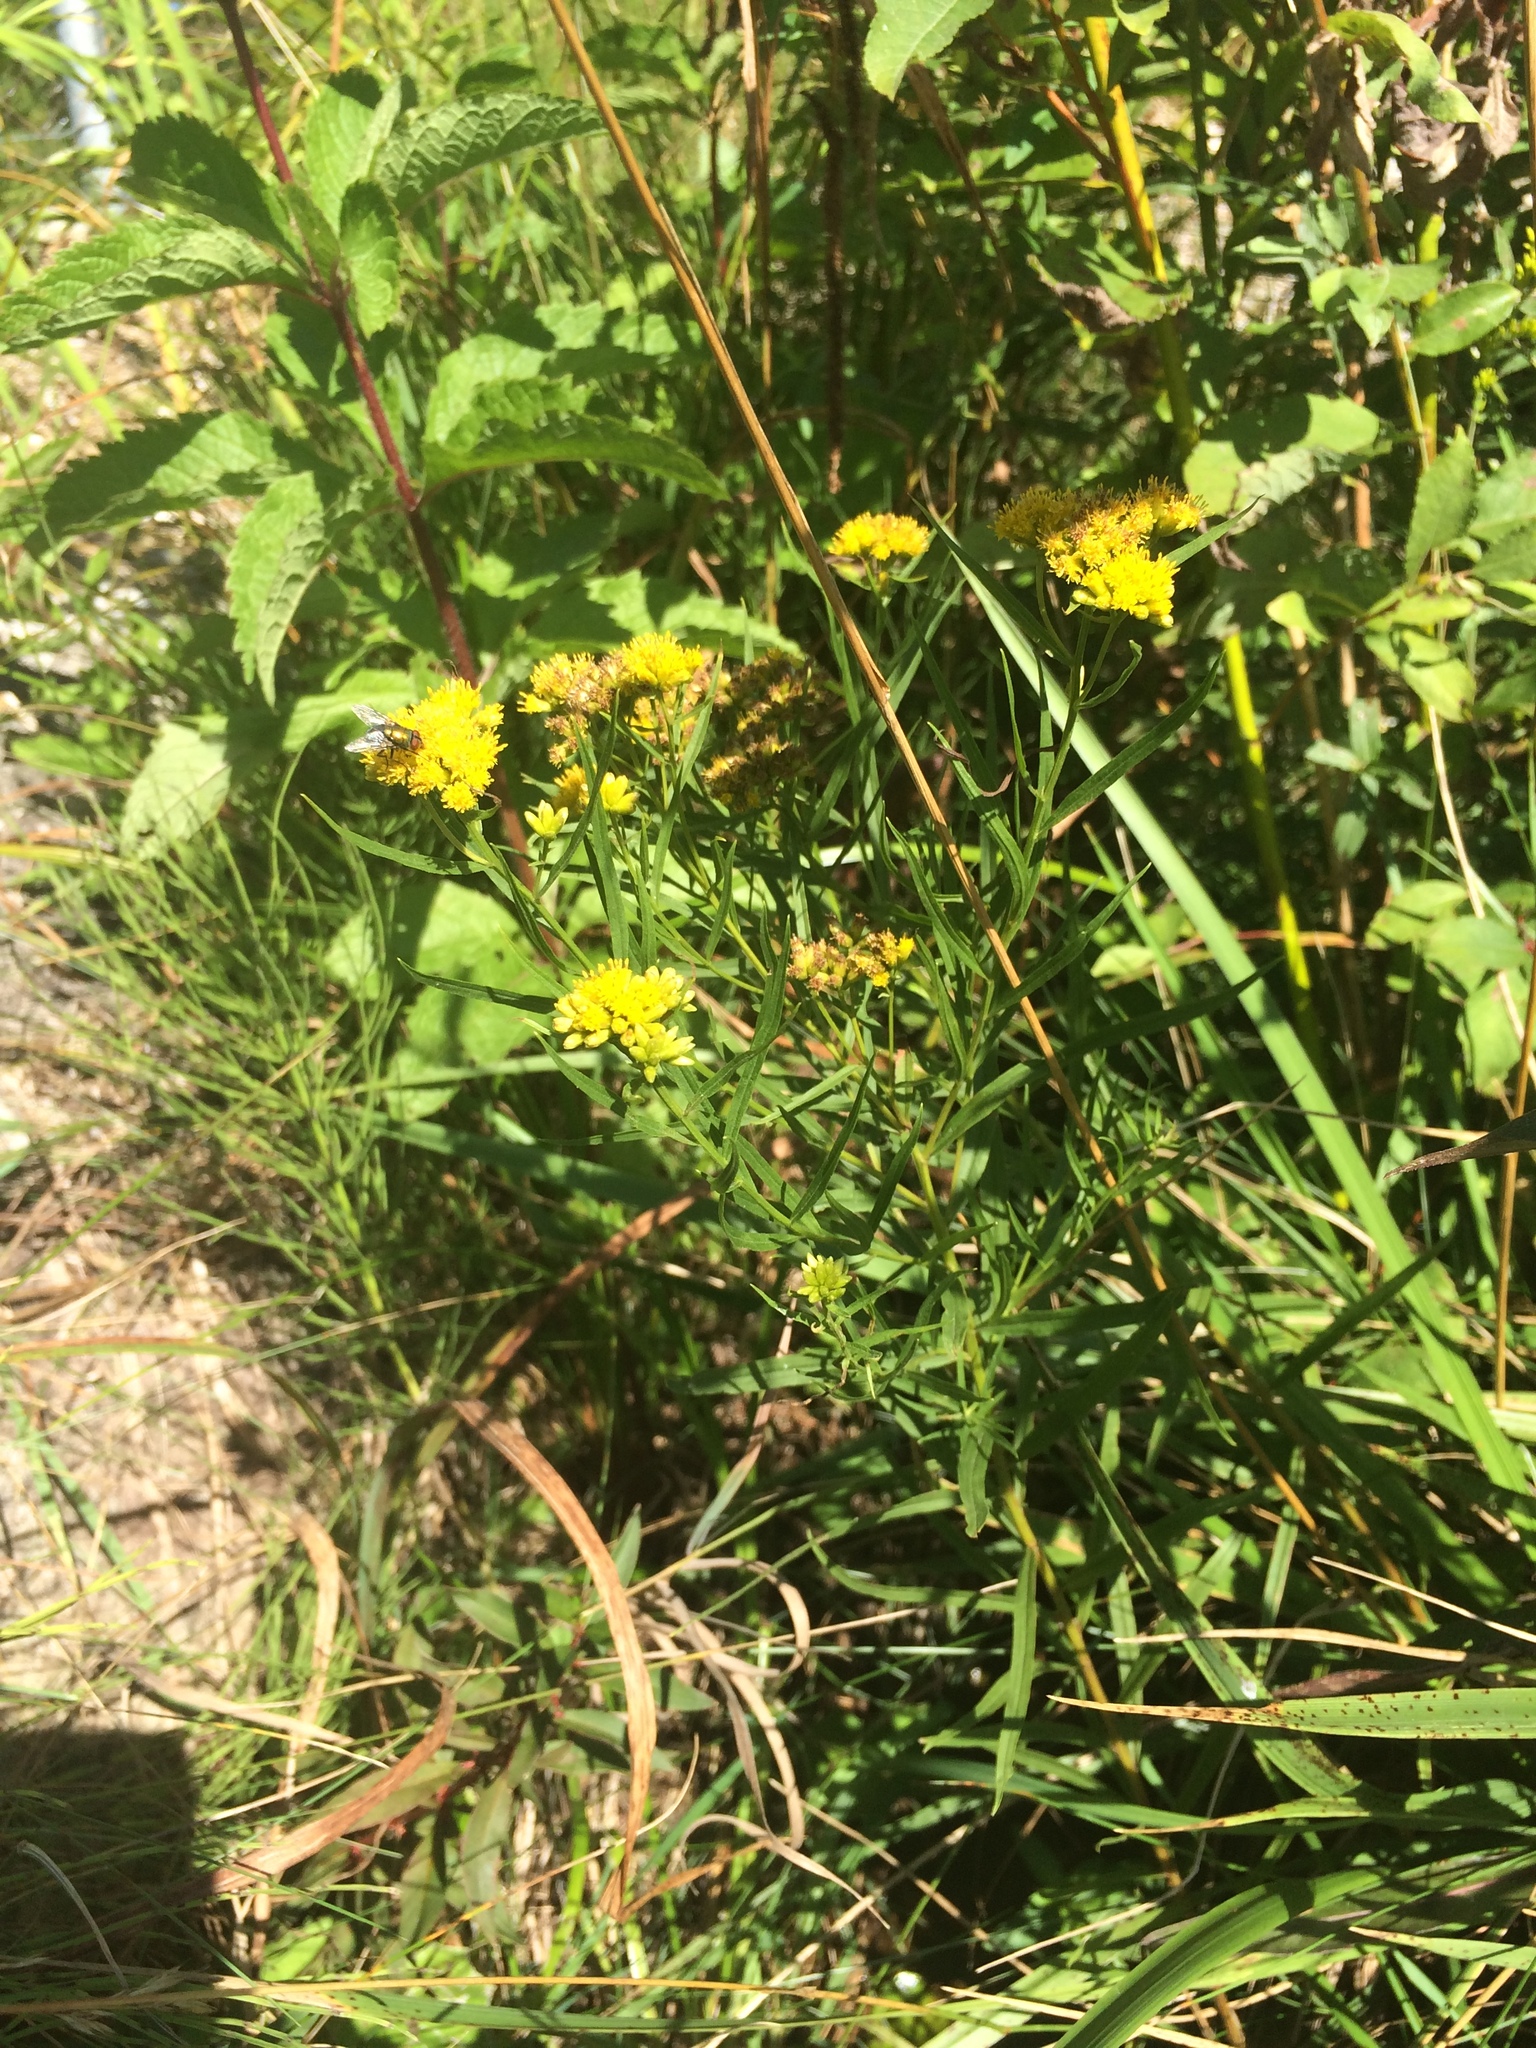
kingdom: Plantae
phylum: Tracheophyta
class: Magnoliopsida
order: Asterales
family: Asteraceae
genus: Euthamia
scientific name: Euthamia graminifolia
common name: Common goldentop
